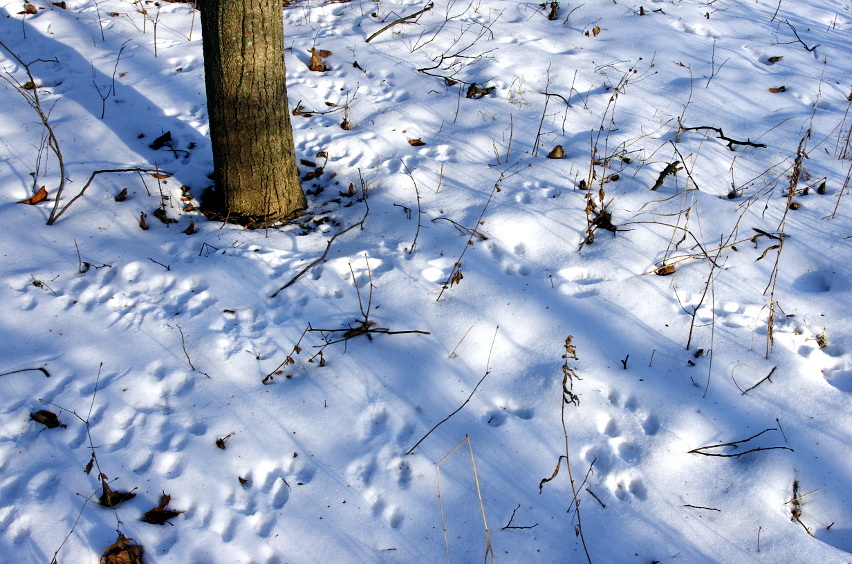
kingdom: Animalia
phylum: Chordata
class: Mammalia
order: Rodentia
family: Sciuridae
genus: Sciurus
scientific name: Sciurus vulgaris
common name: Eurasian red squirrel
